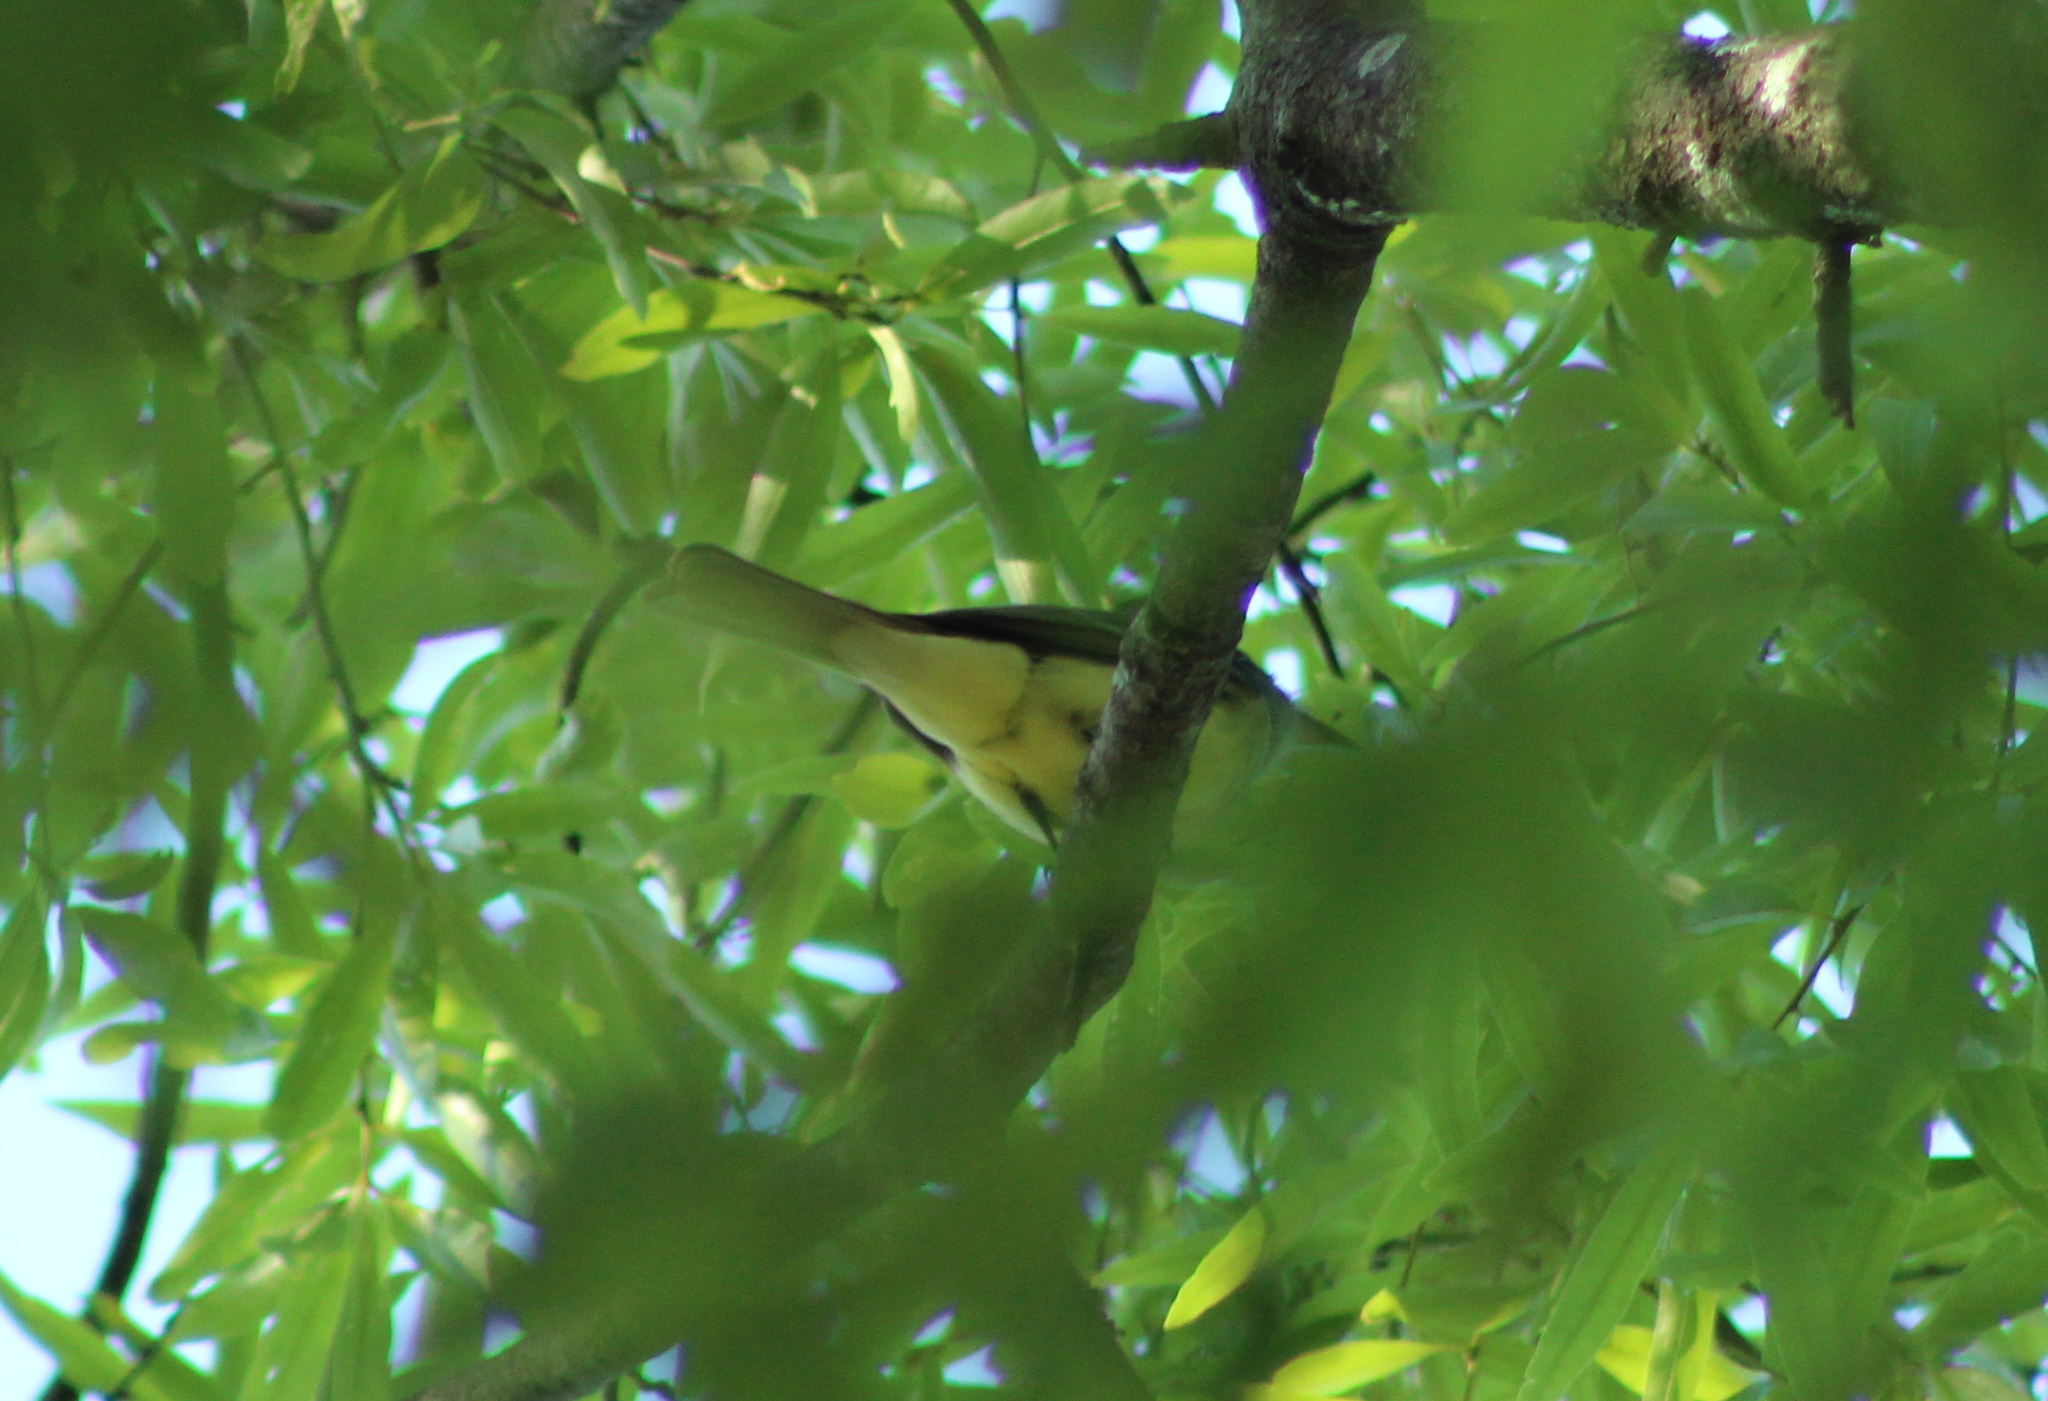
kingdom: Animalia
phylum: Chordata
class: Aves
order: Passeriformes
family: Tyrannidae
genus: Myiarchus
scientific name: Myiarchus crinitus
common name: Great crested flycatcher
